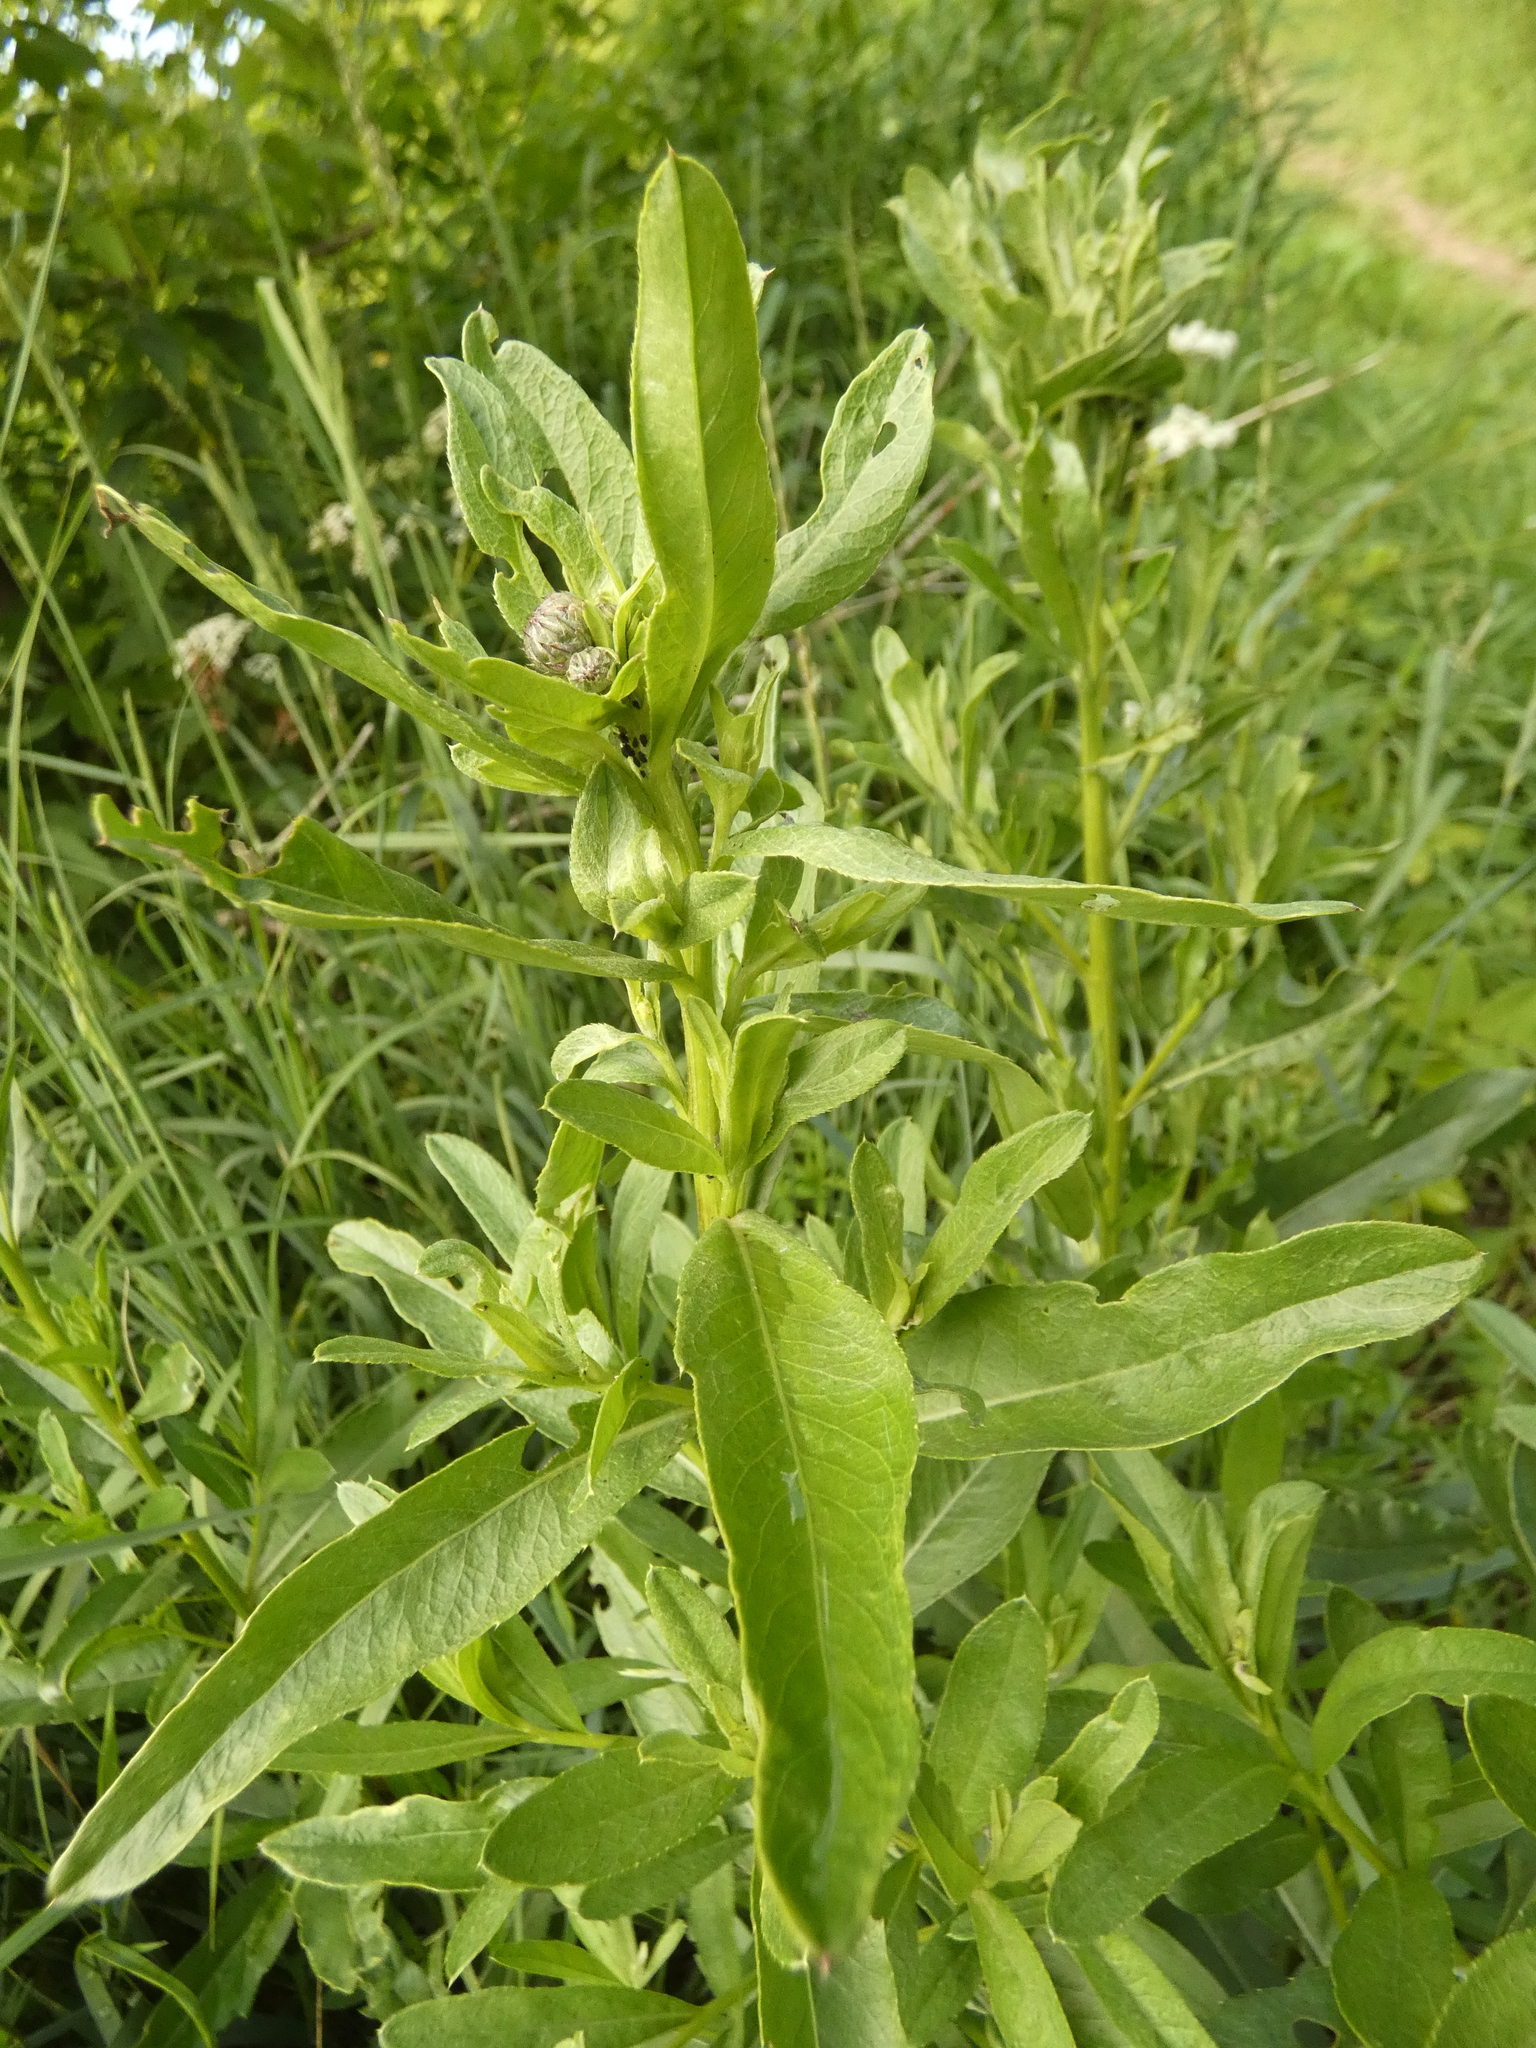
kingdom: Plantae
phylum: Tracheophyta
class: Magnoliopsida
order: Asterales
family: Asteraceae
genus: Cirsium
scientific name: Cirsium arvense
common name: Creeping thistle
